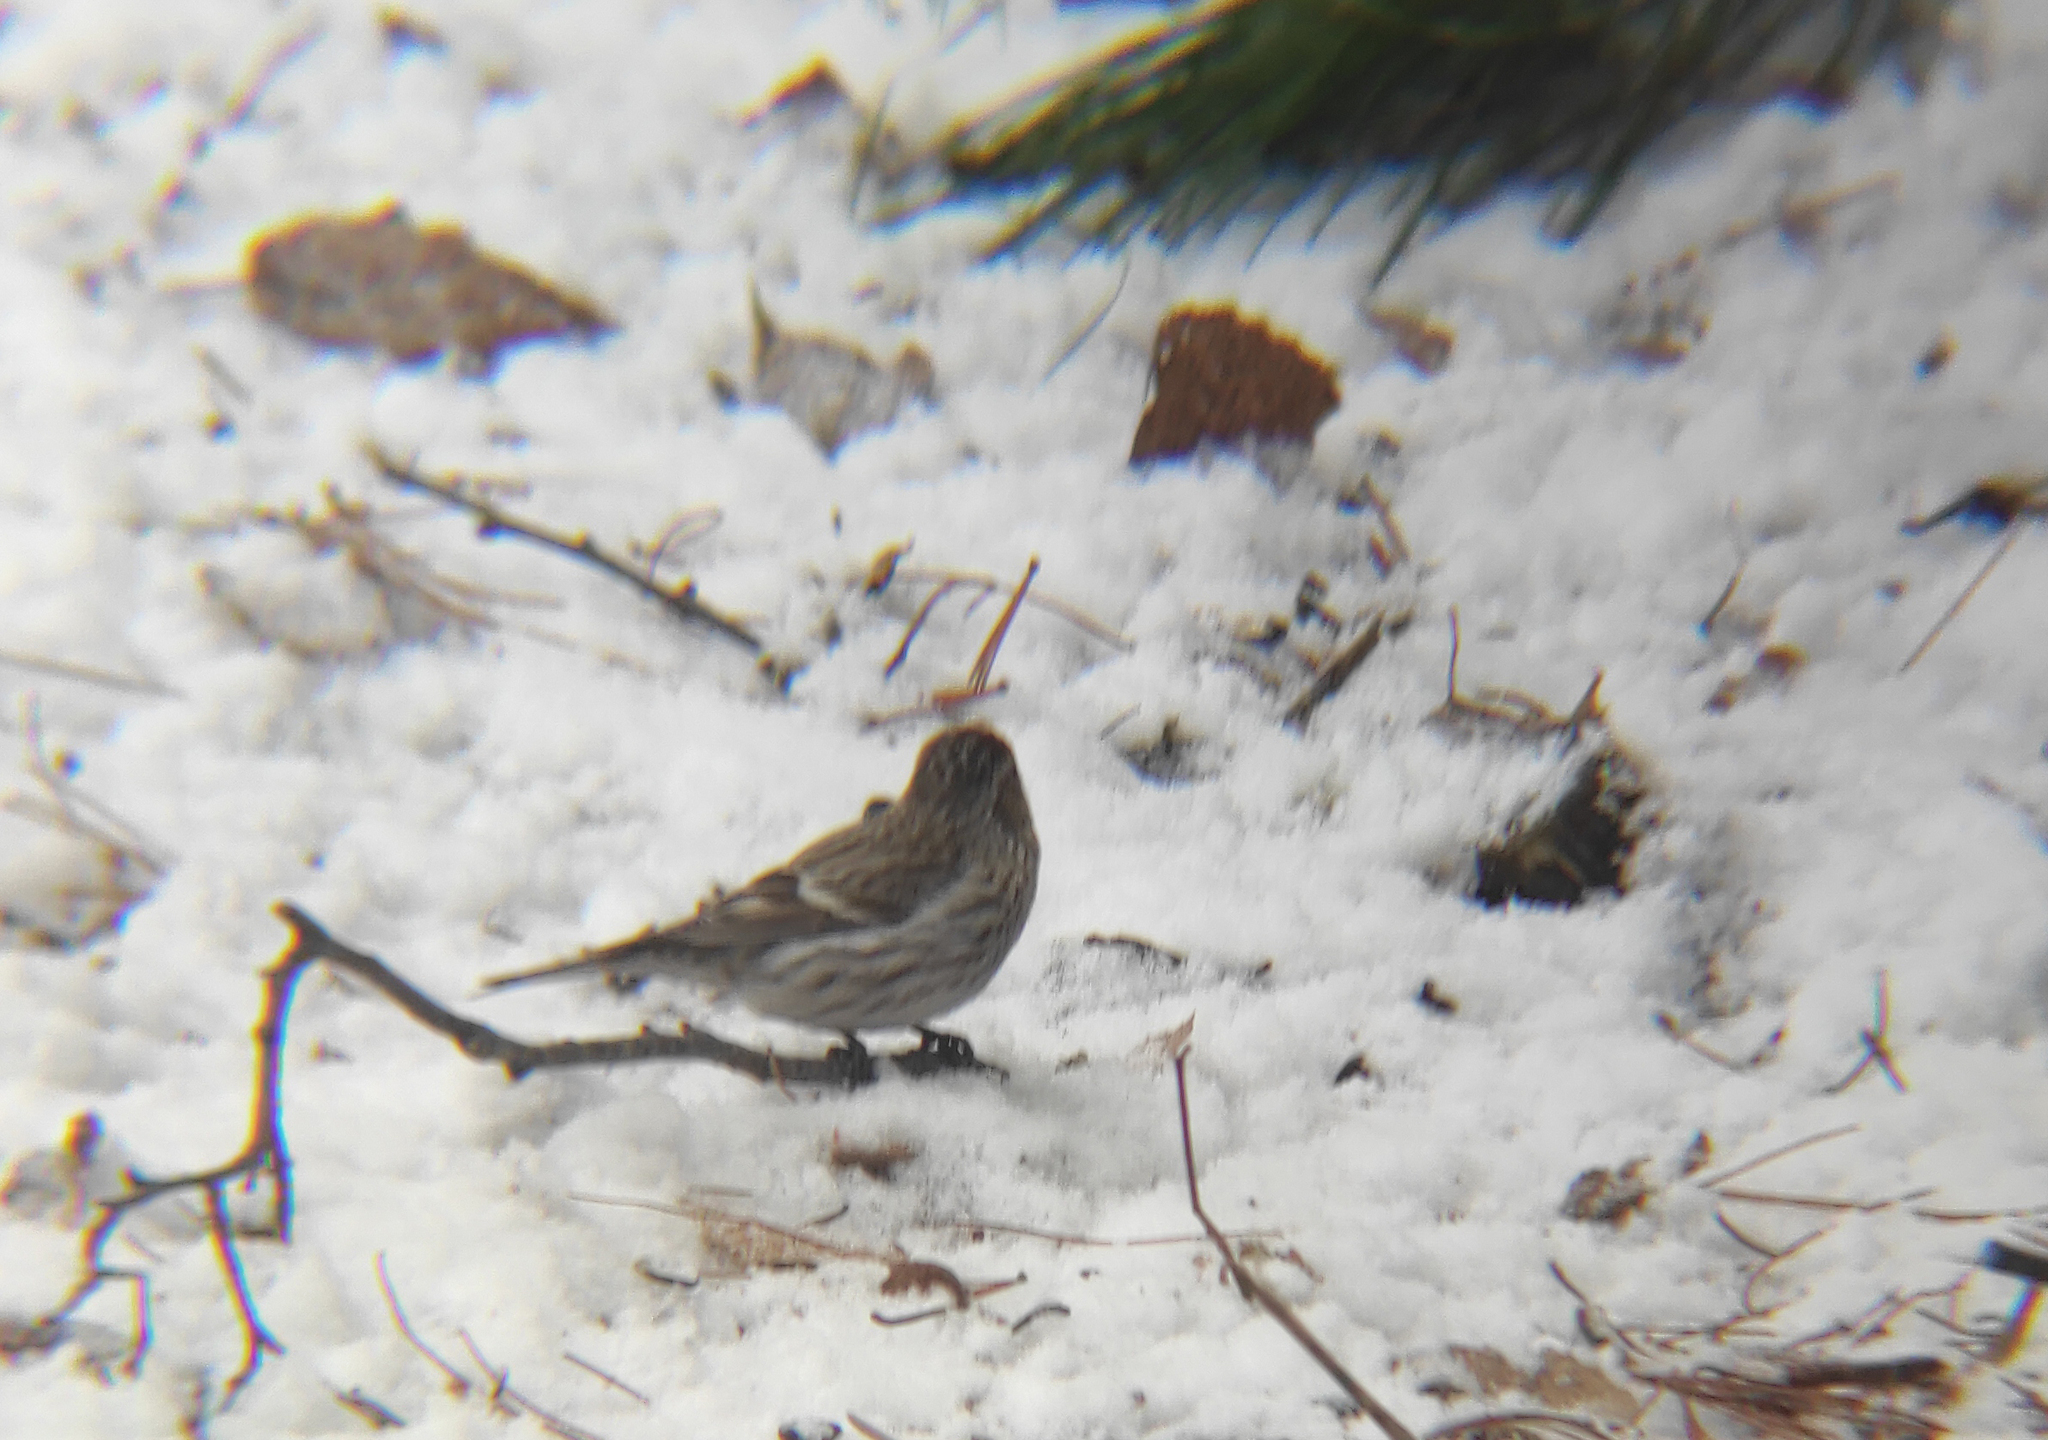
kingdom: Animalia
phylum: Chordata
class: Aves
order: Passeriformes
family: Fringillidae
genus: Acanthis
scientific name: Acanthis flammea
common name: Common redpoll
